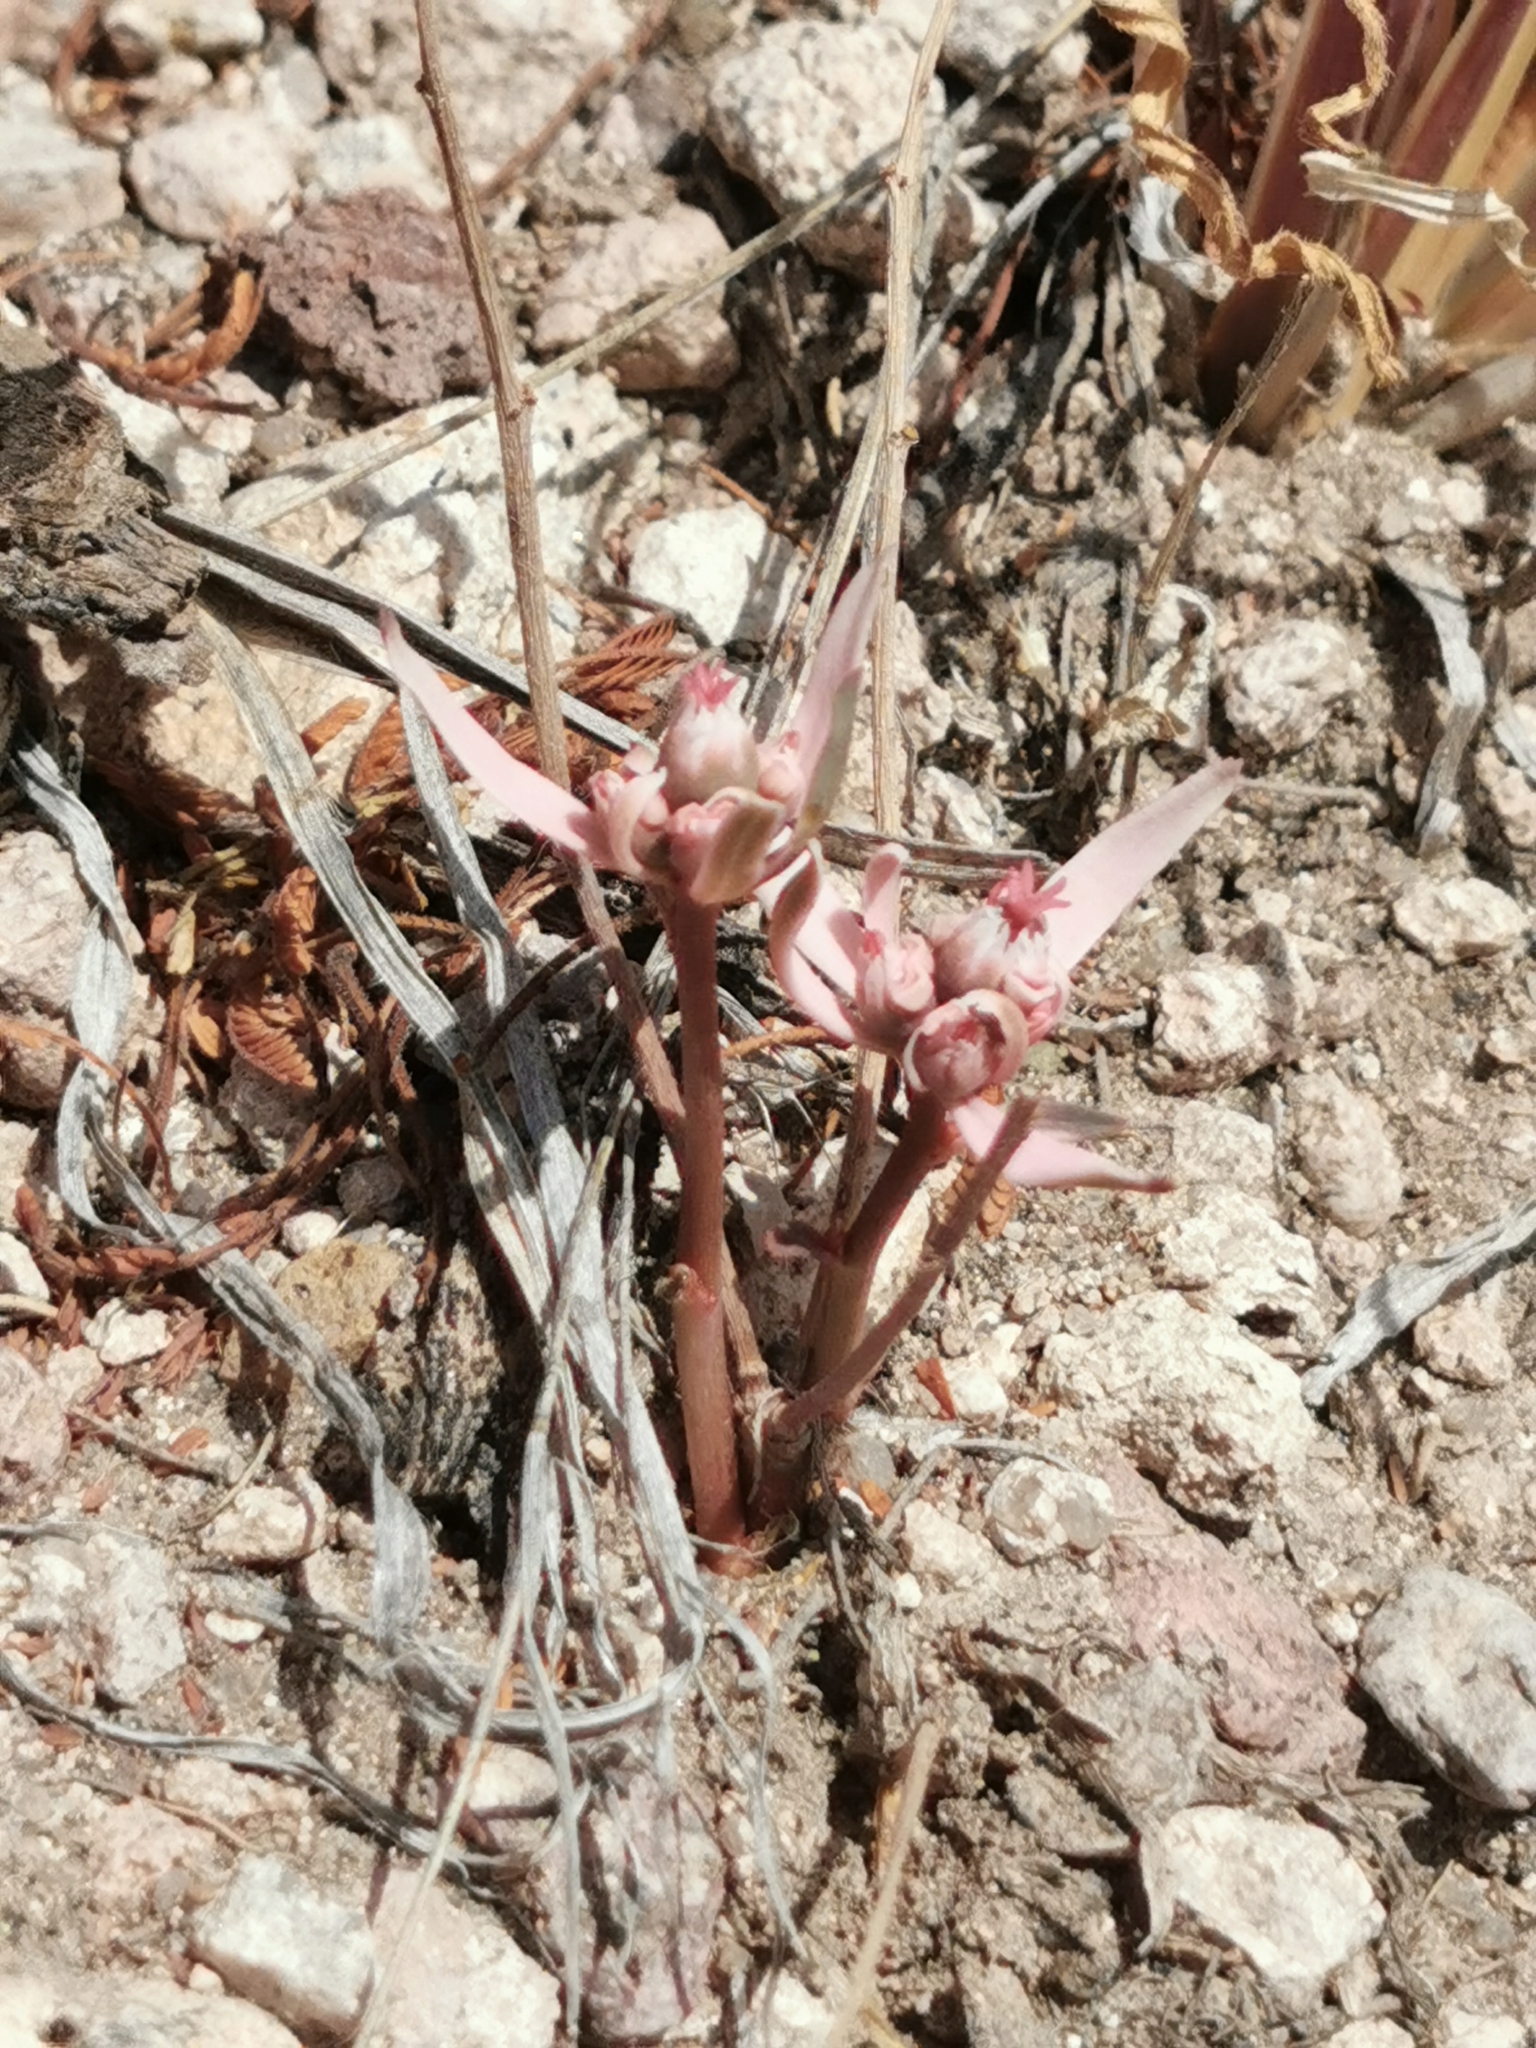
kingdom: Plantae
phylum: Tracheophyta
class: Magnoliopsida
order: Malpighiales
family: Euphorbiaceae
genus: Euphorbia
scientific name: Euphorbia radians
